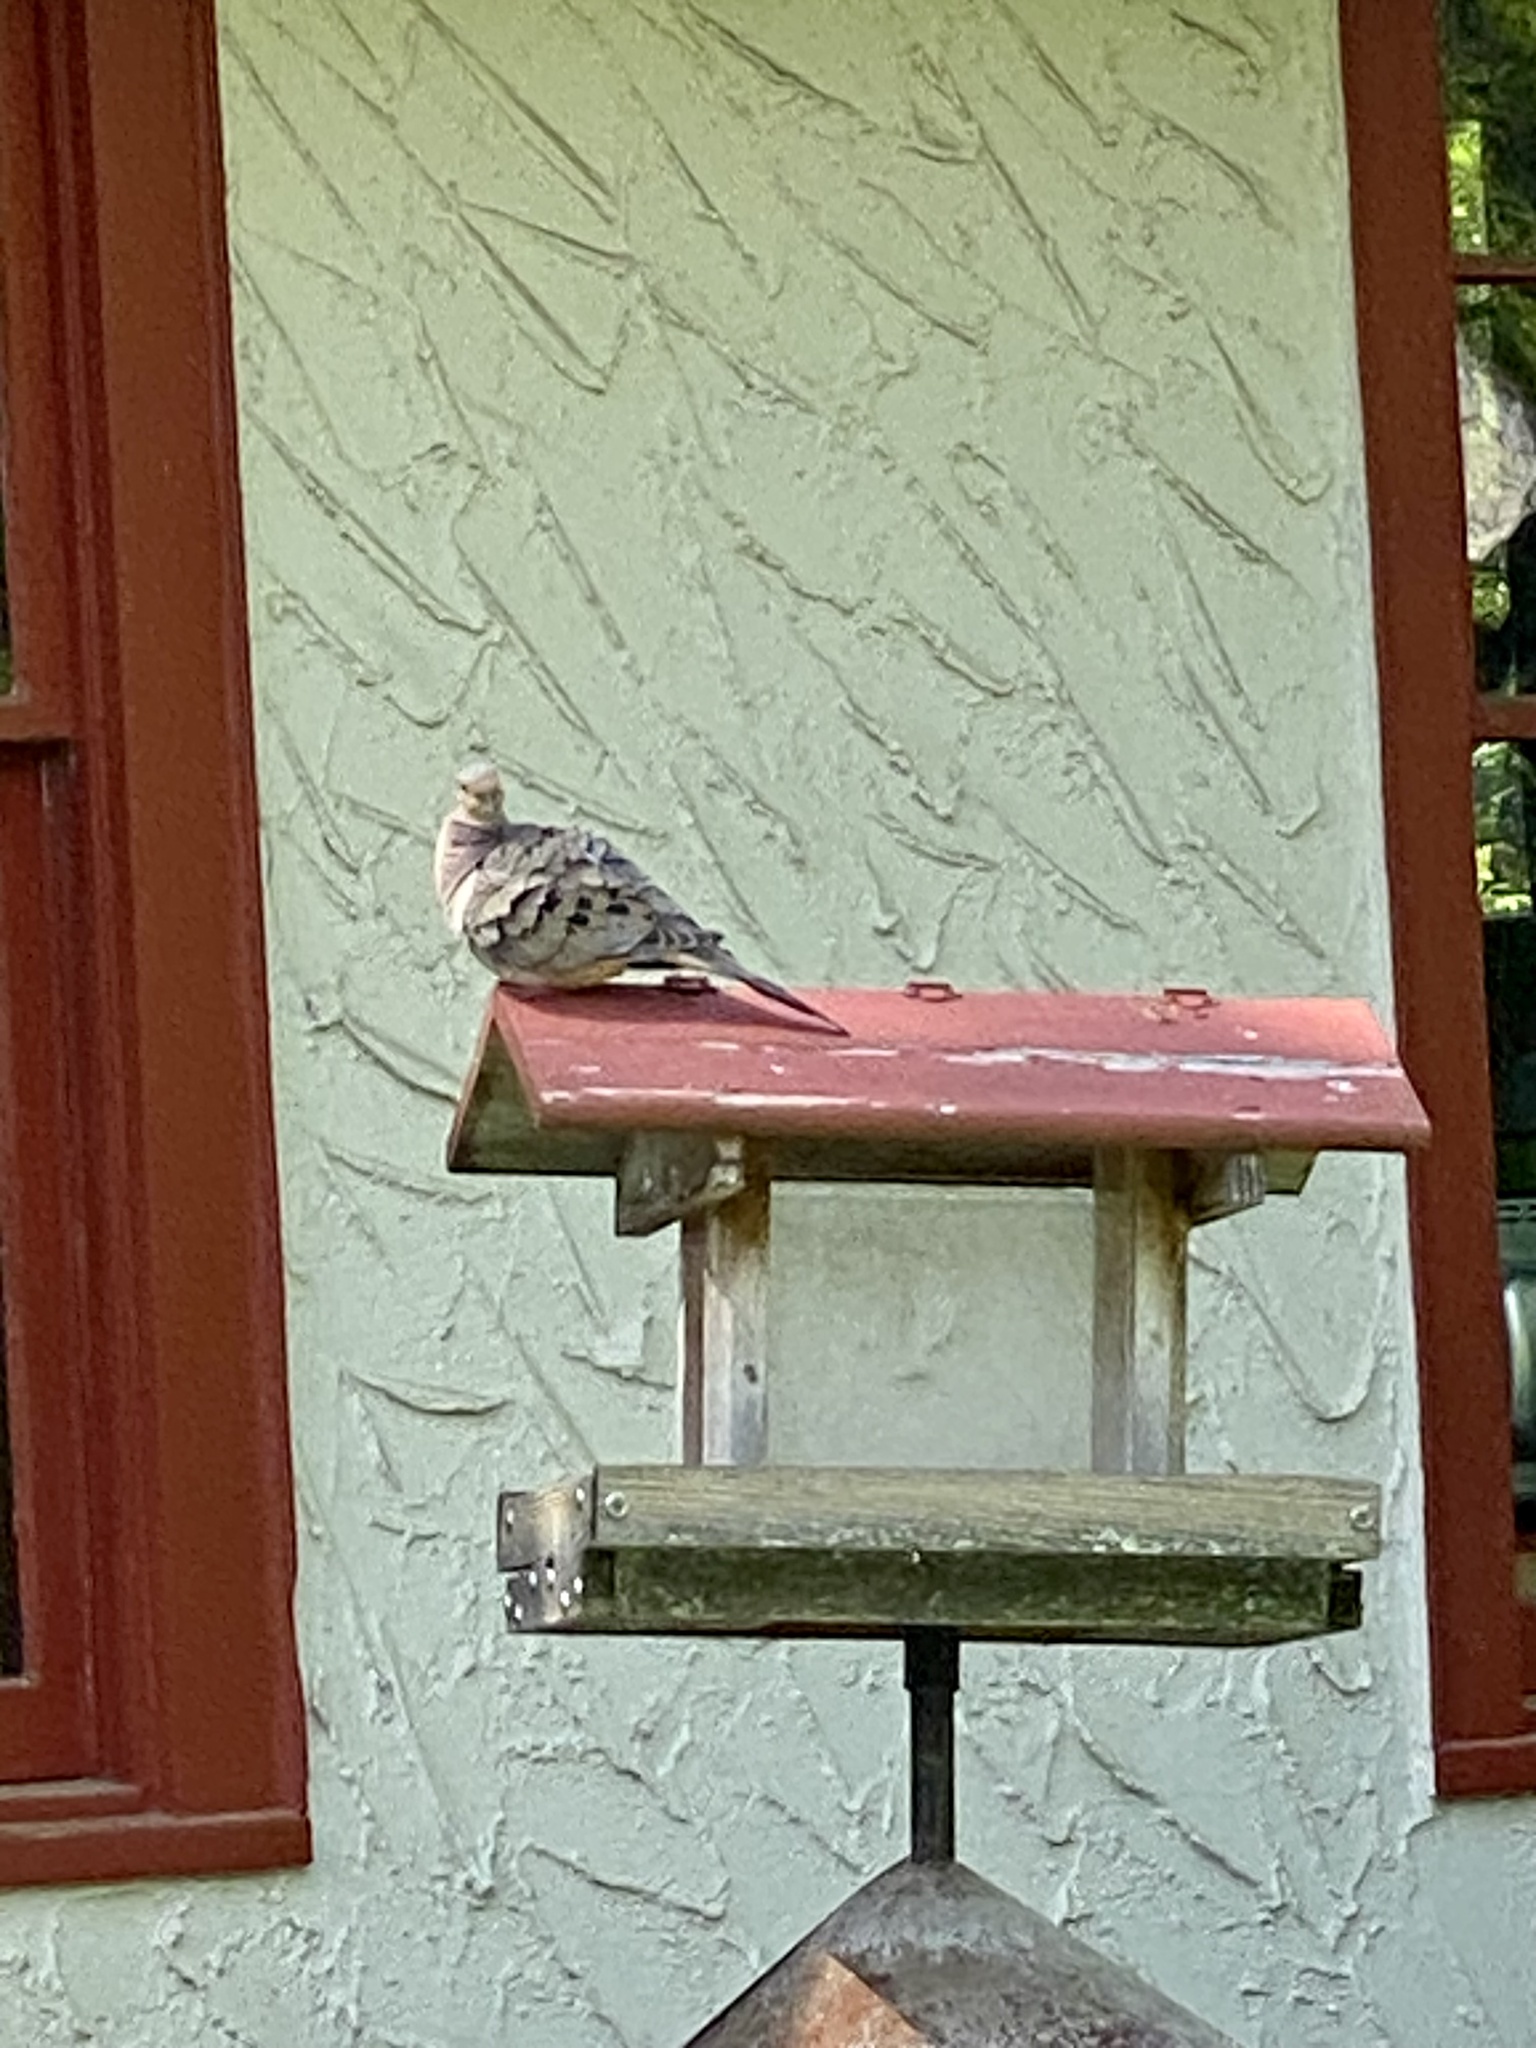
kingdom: Animalia
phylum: Chordata
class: Aves
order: Columbiformes
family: Columbidae
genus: Zenaida
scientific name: Zenaida macroura
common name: Mourning dove
